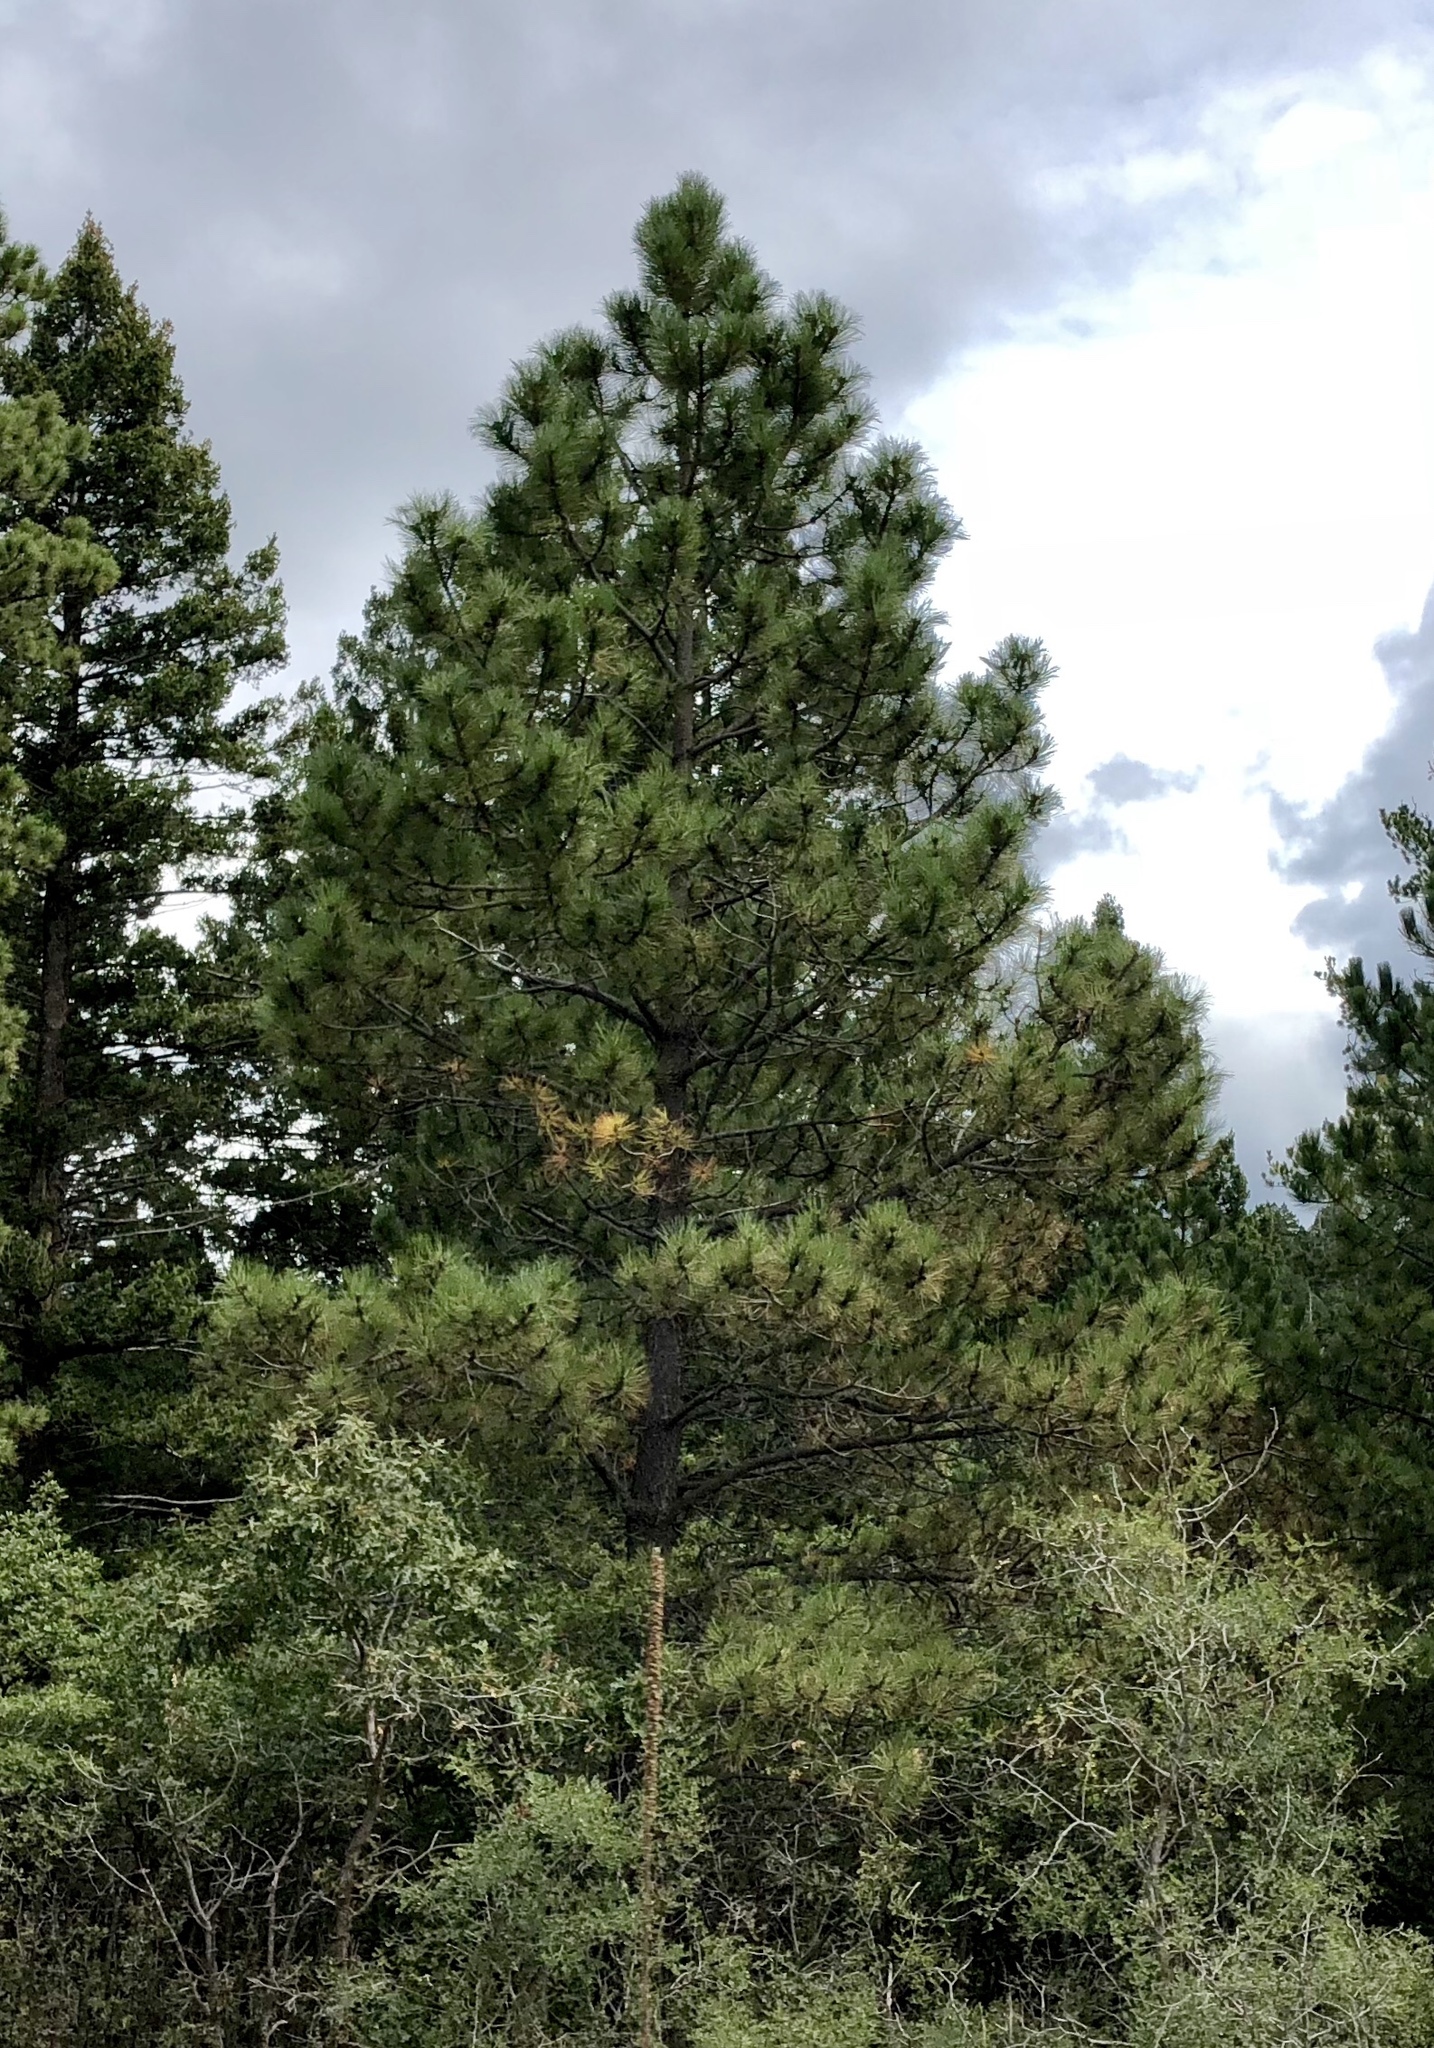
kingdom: Plantae
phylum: Tracheophyta
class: Pinopsida
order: Pinales
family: Pinaceae
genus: Pinus
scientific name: Pinus ponderosa
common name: Western yellow-pine
